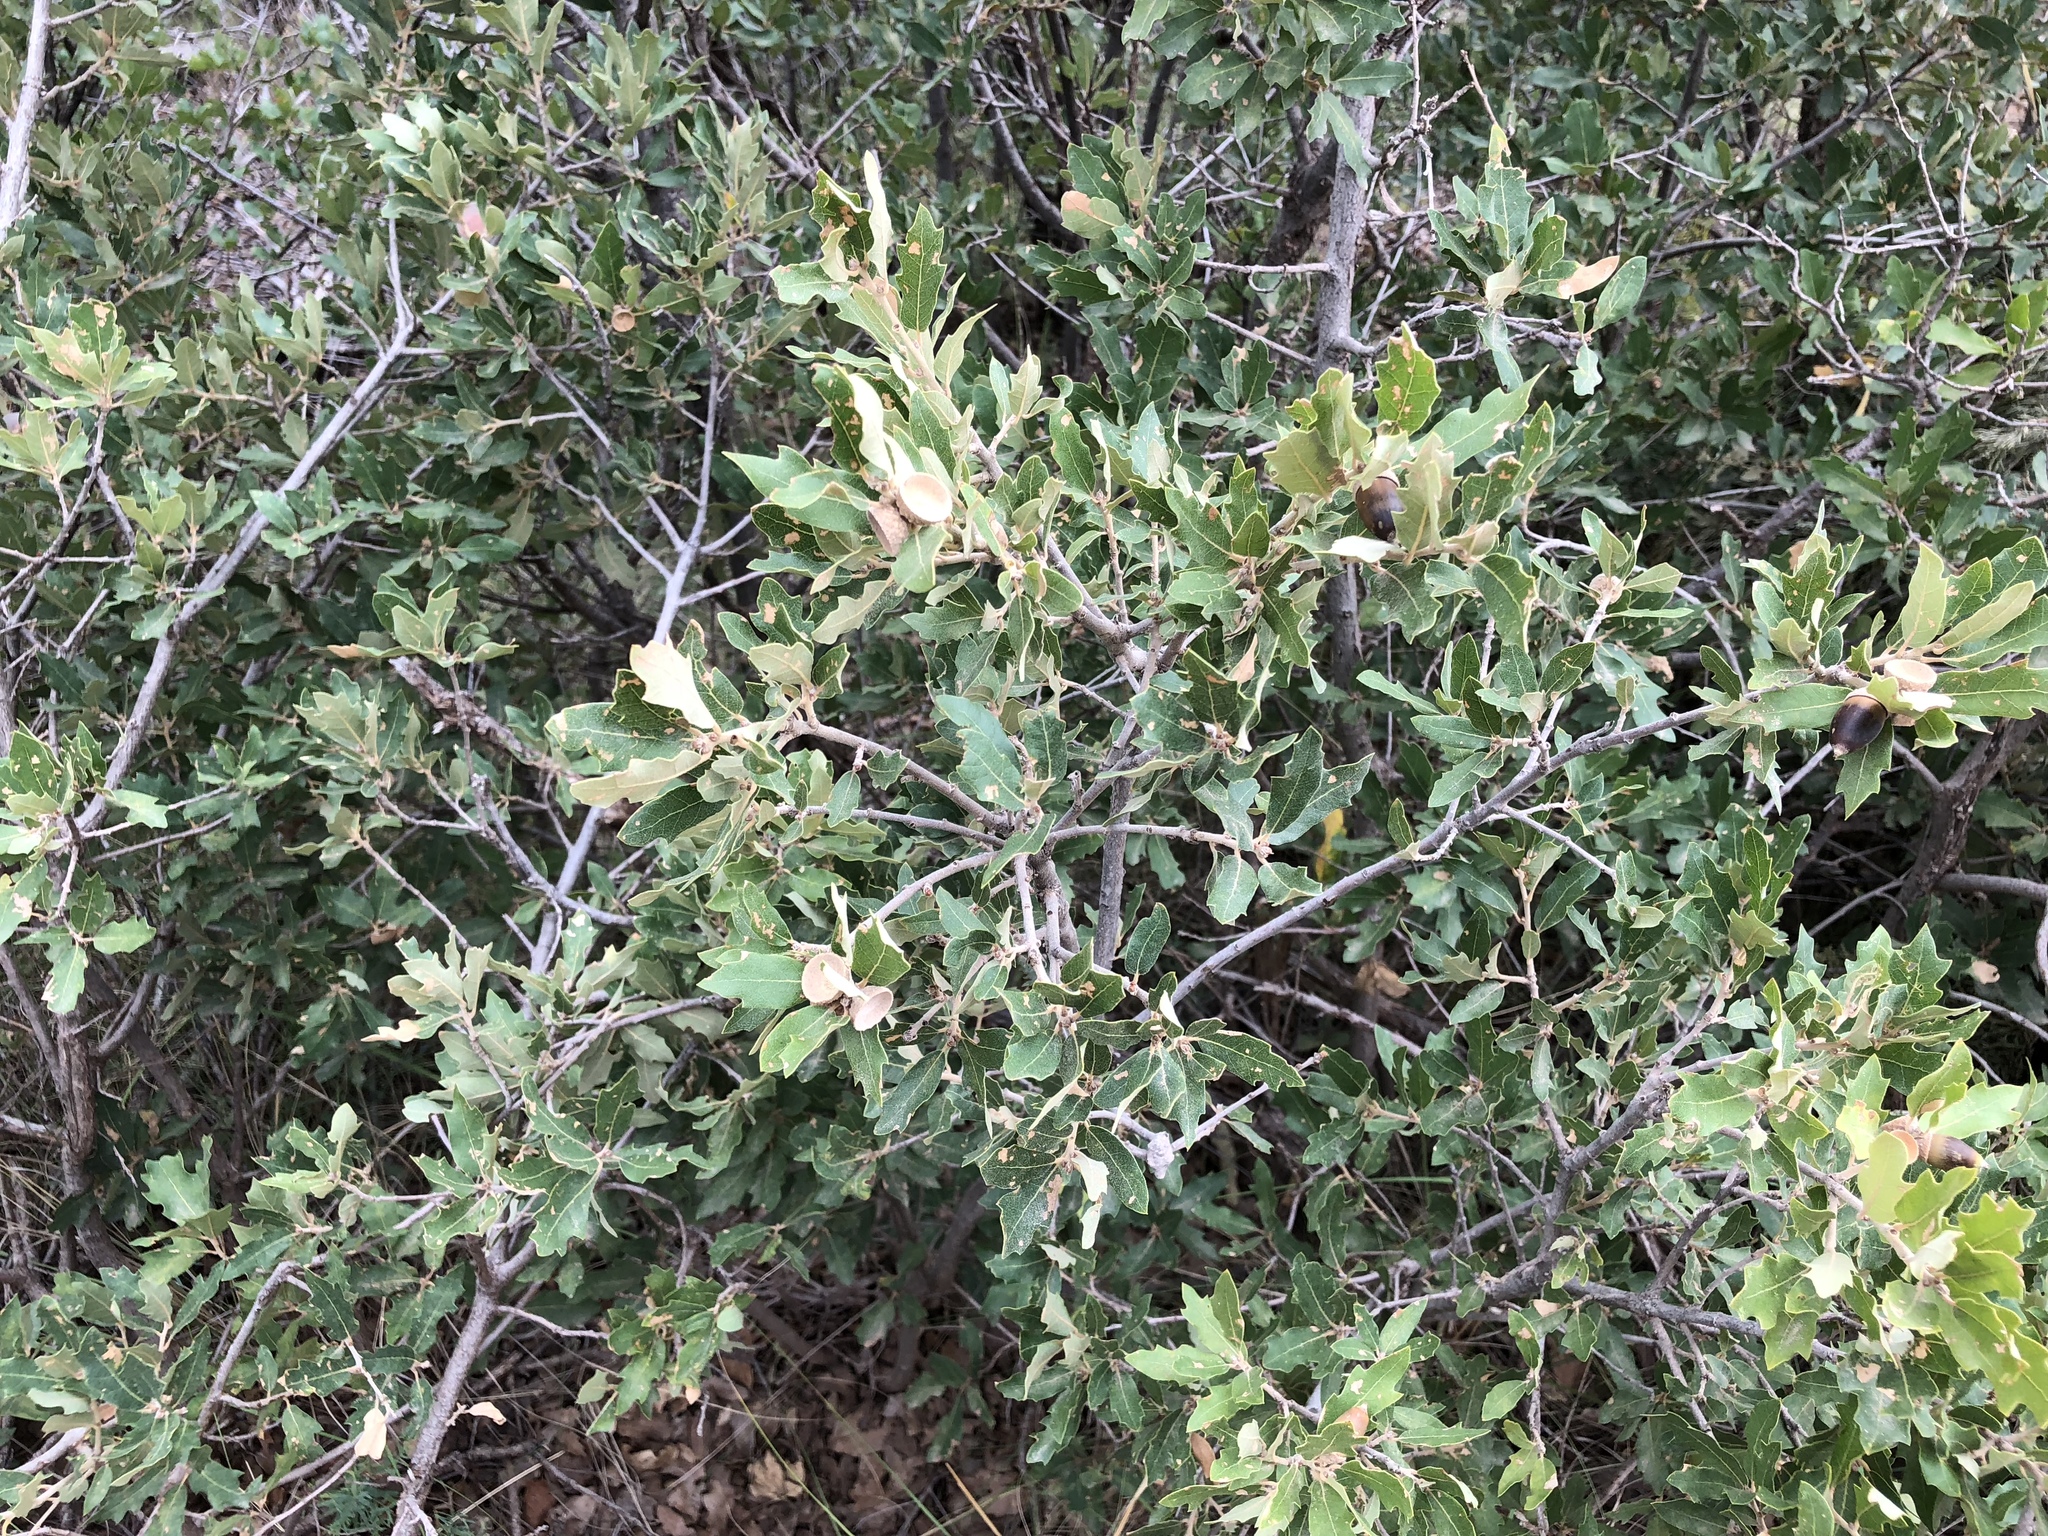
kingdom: Plantae
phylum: Tracheophyta
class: Magnoliopsida
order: Fagales
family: Fagaceae
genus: Quercus
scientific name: Quercus undulata
